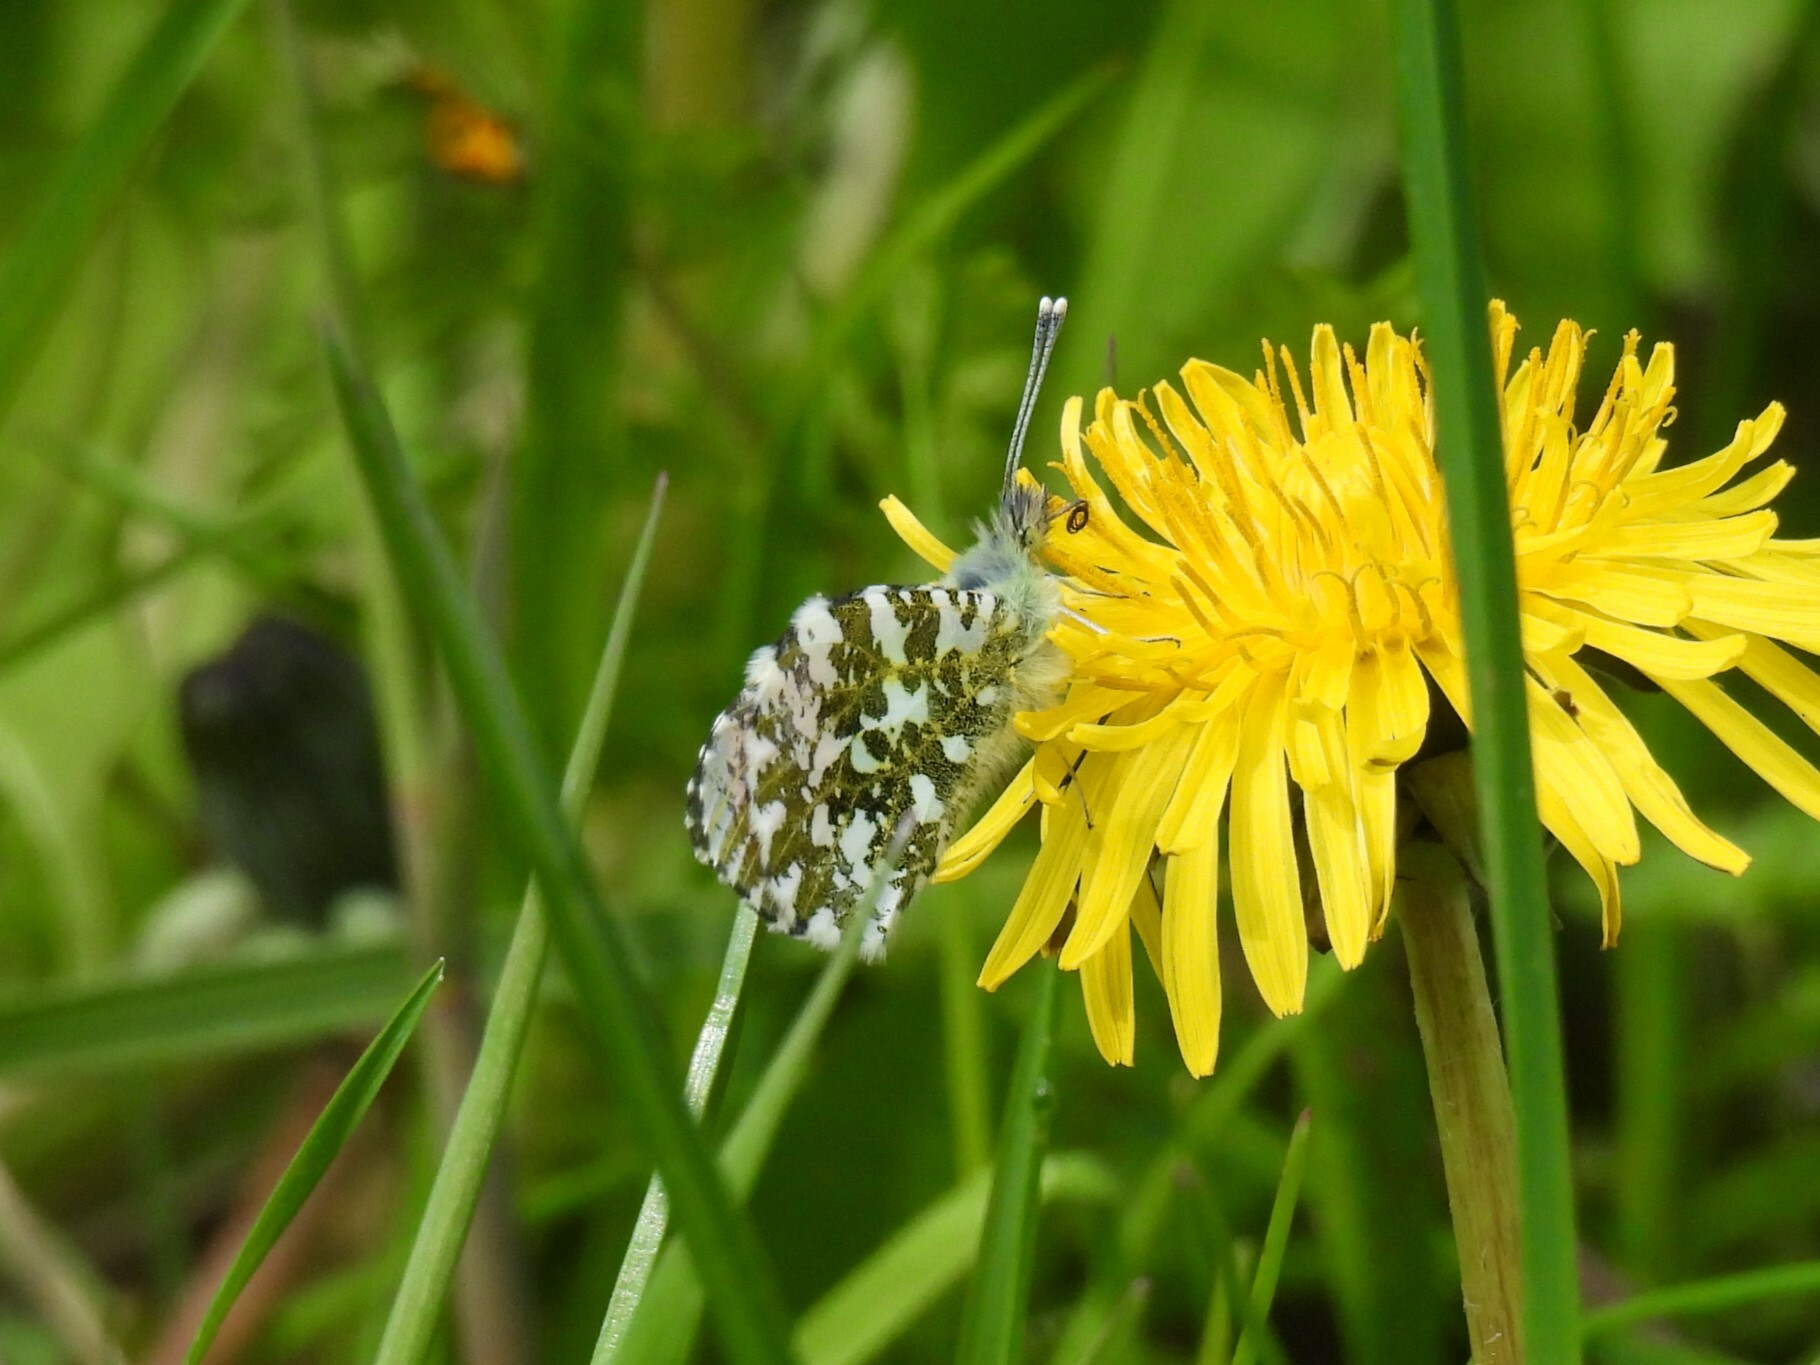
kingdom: Animalia
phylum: Arthropoda
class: Insecta
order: Lepidoptera
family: Pieridae
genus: Anthocharis
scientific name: Anthocharis cardamines
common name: Orange-tip
